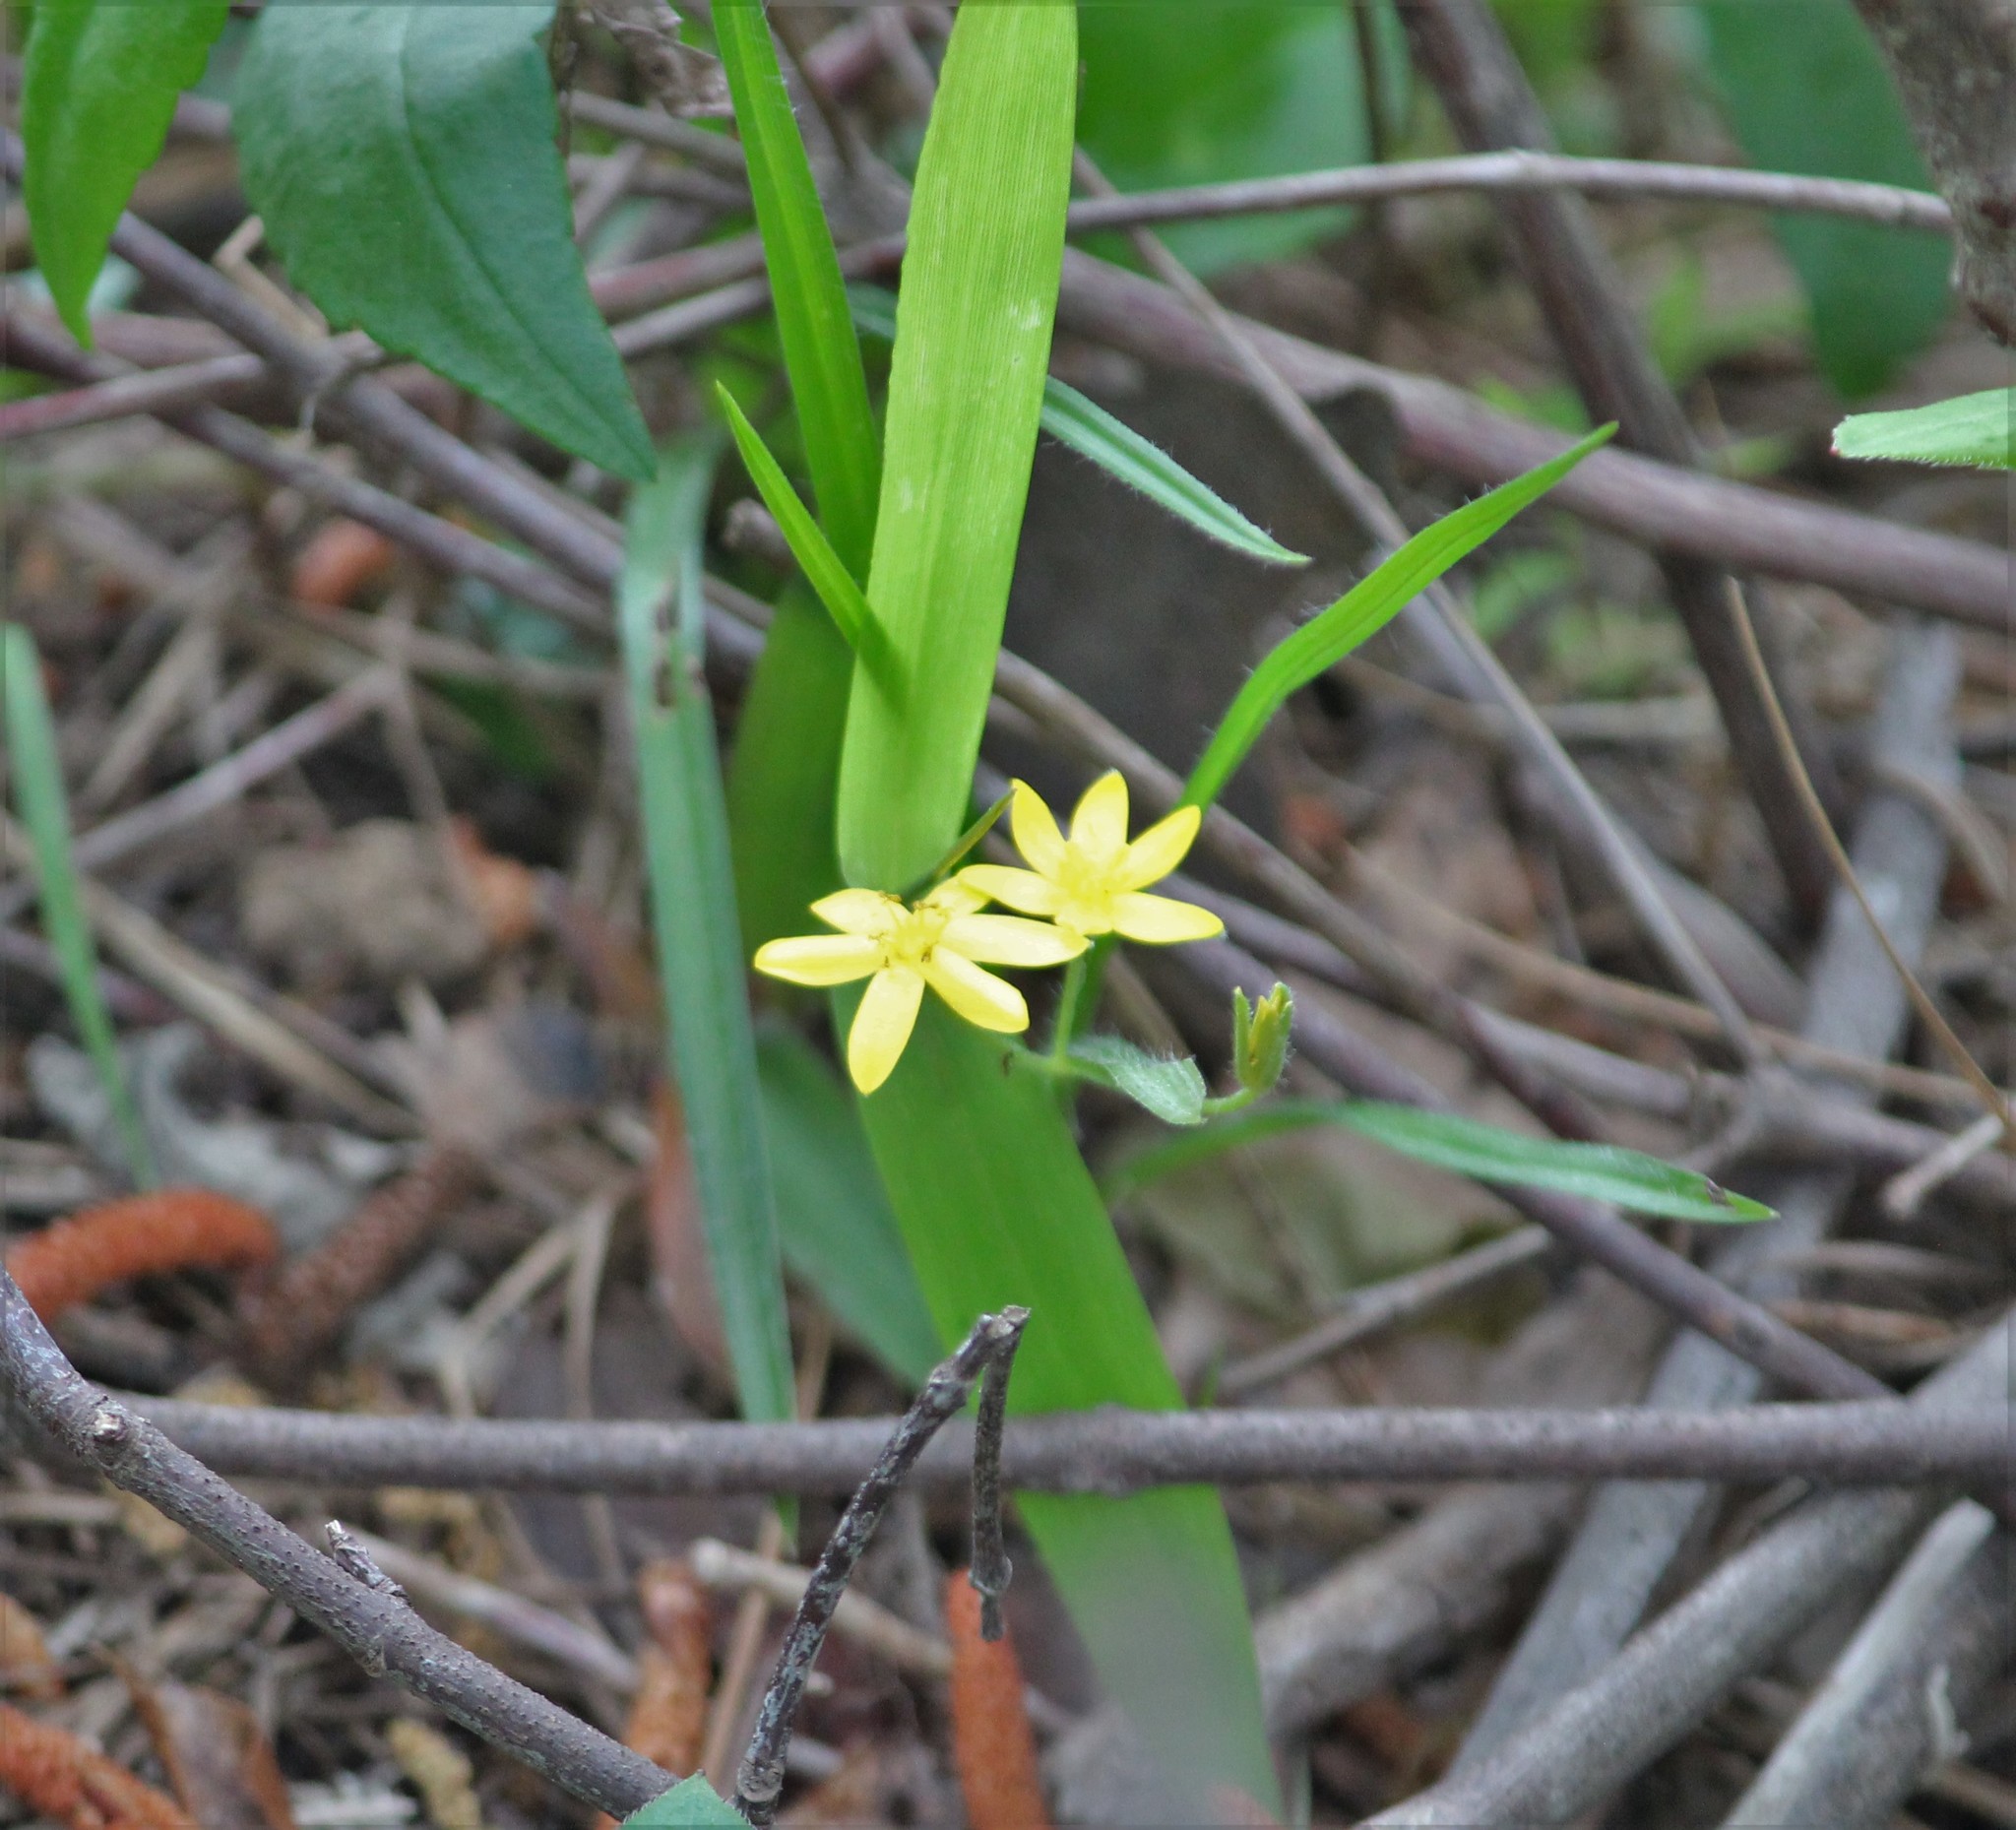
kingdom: Plantae
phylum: Tracheophyta
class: Liliopsida
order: Asparagales
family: Hypoxidaceae
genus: Hypoxis
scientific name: Hypoxis hirsuta
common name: Common goldstar
